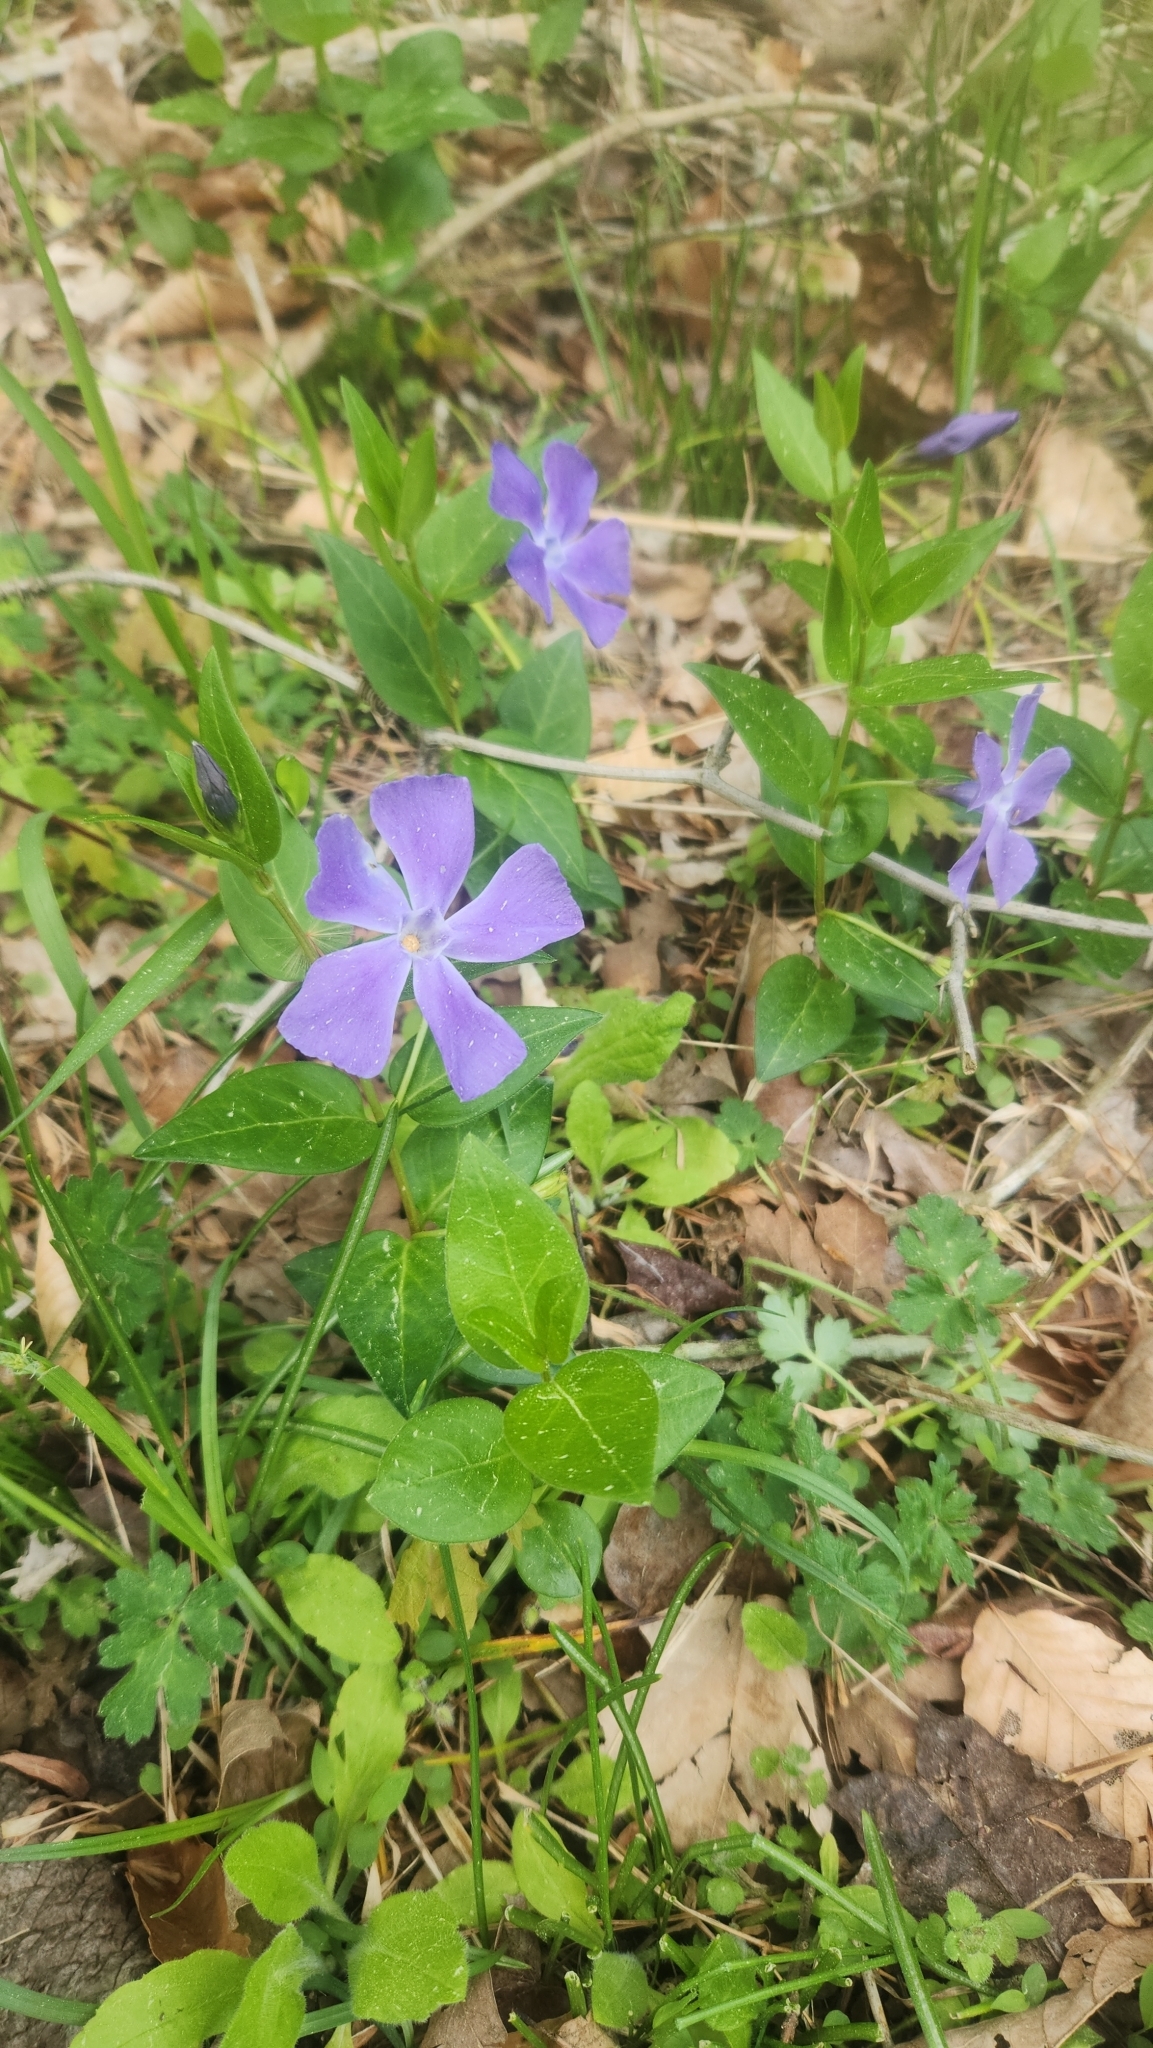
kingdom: Plantae
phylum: Tracheophyta
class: Magnoliopsida
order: Gentianales
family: Apocynaceae
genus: Vinca
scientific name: Vinca major
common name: Greater periwinkle
